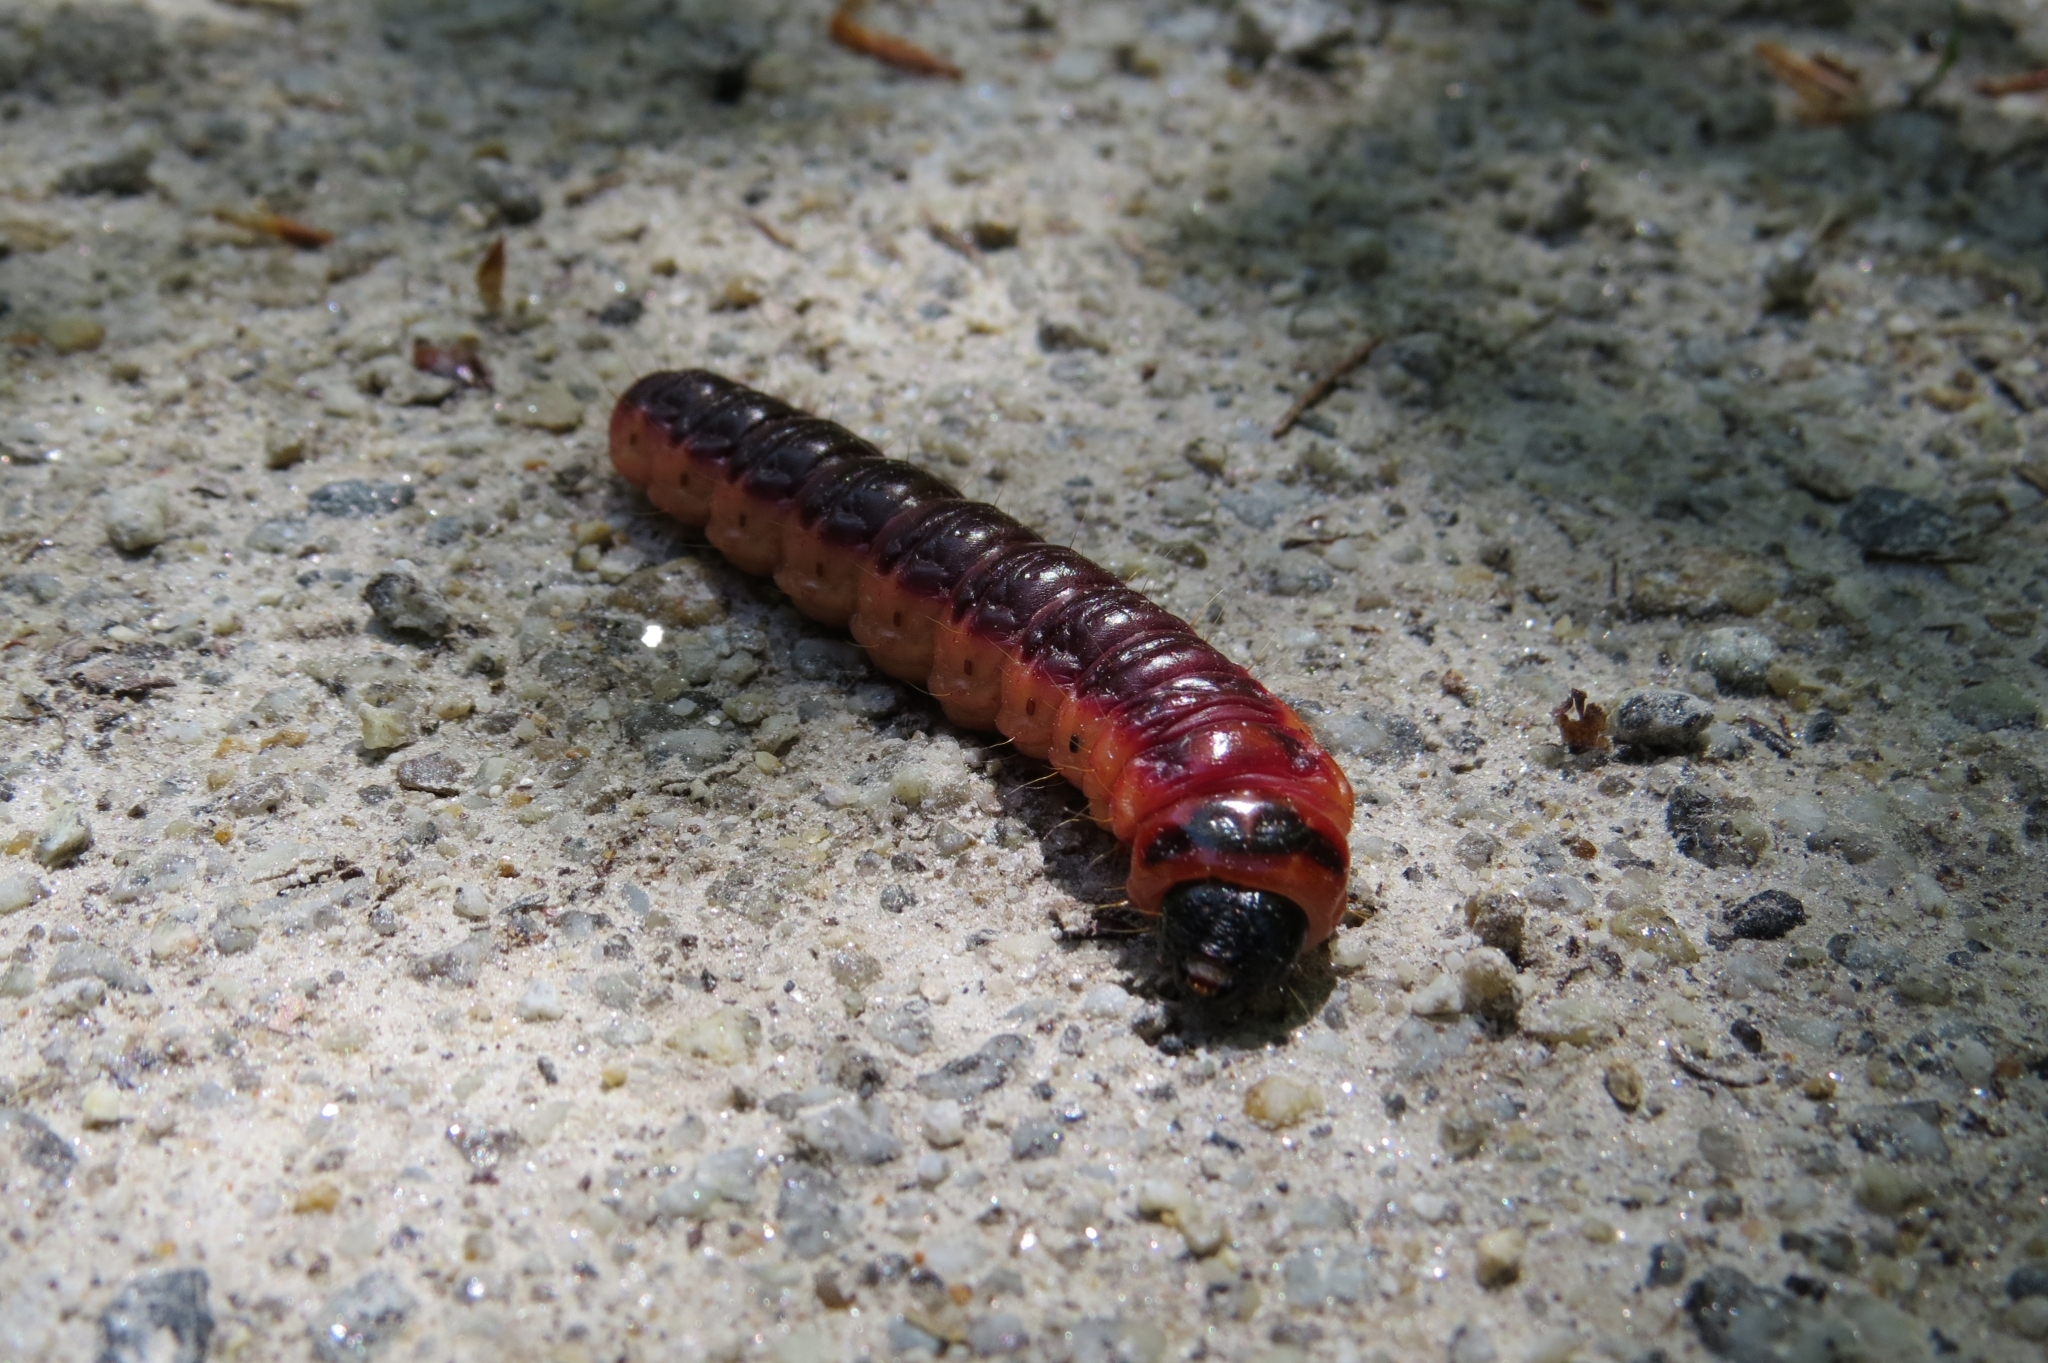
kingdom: Animalia
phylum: Arthropoda
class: Insecta
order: Lepidoptera
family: Cossidae
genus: Cossus
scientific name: Cossus cossus
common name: Goat moth
